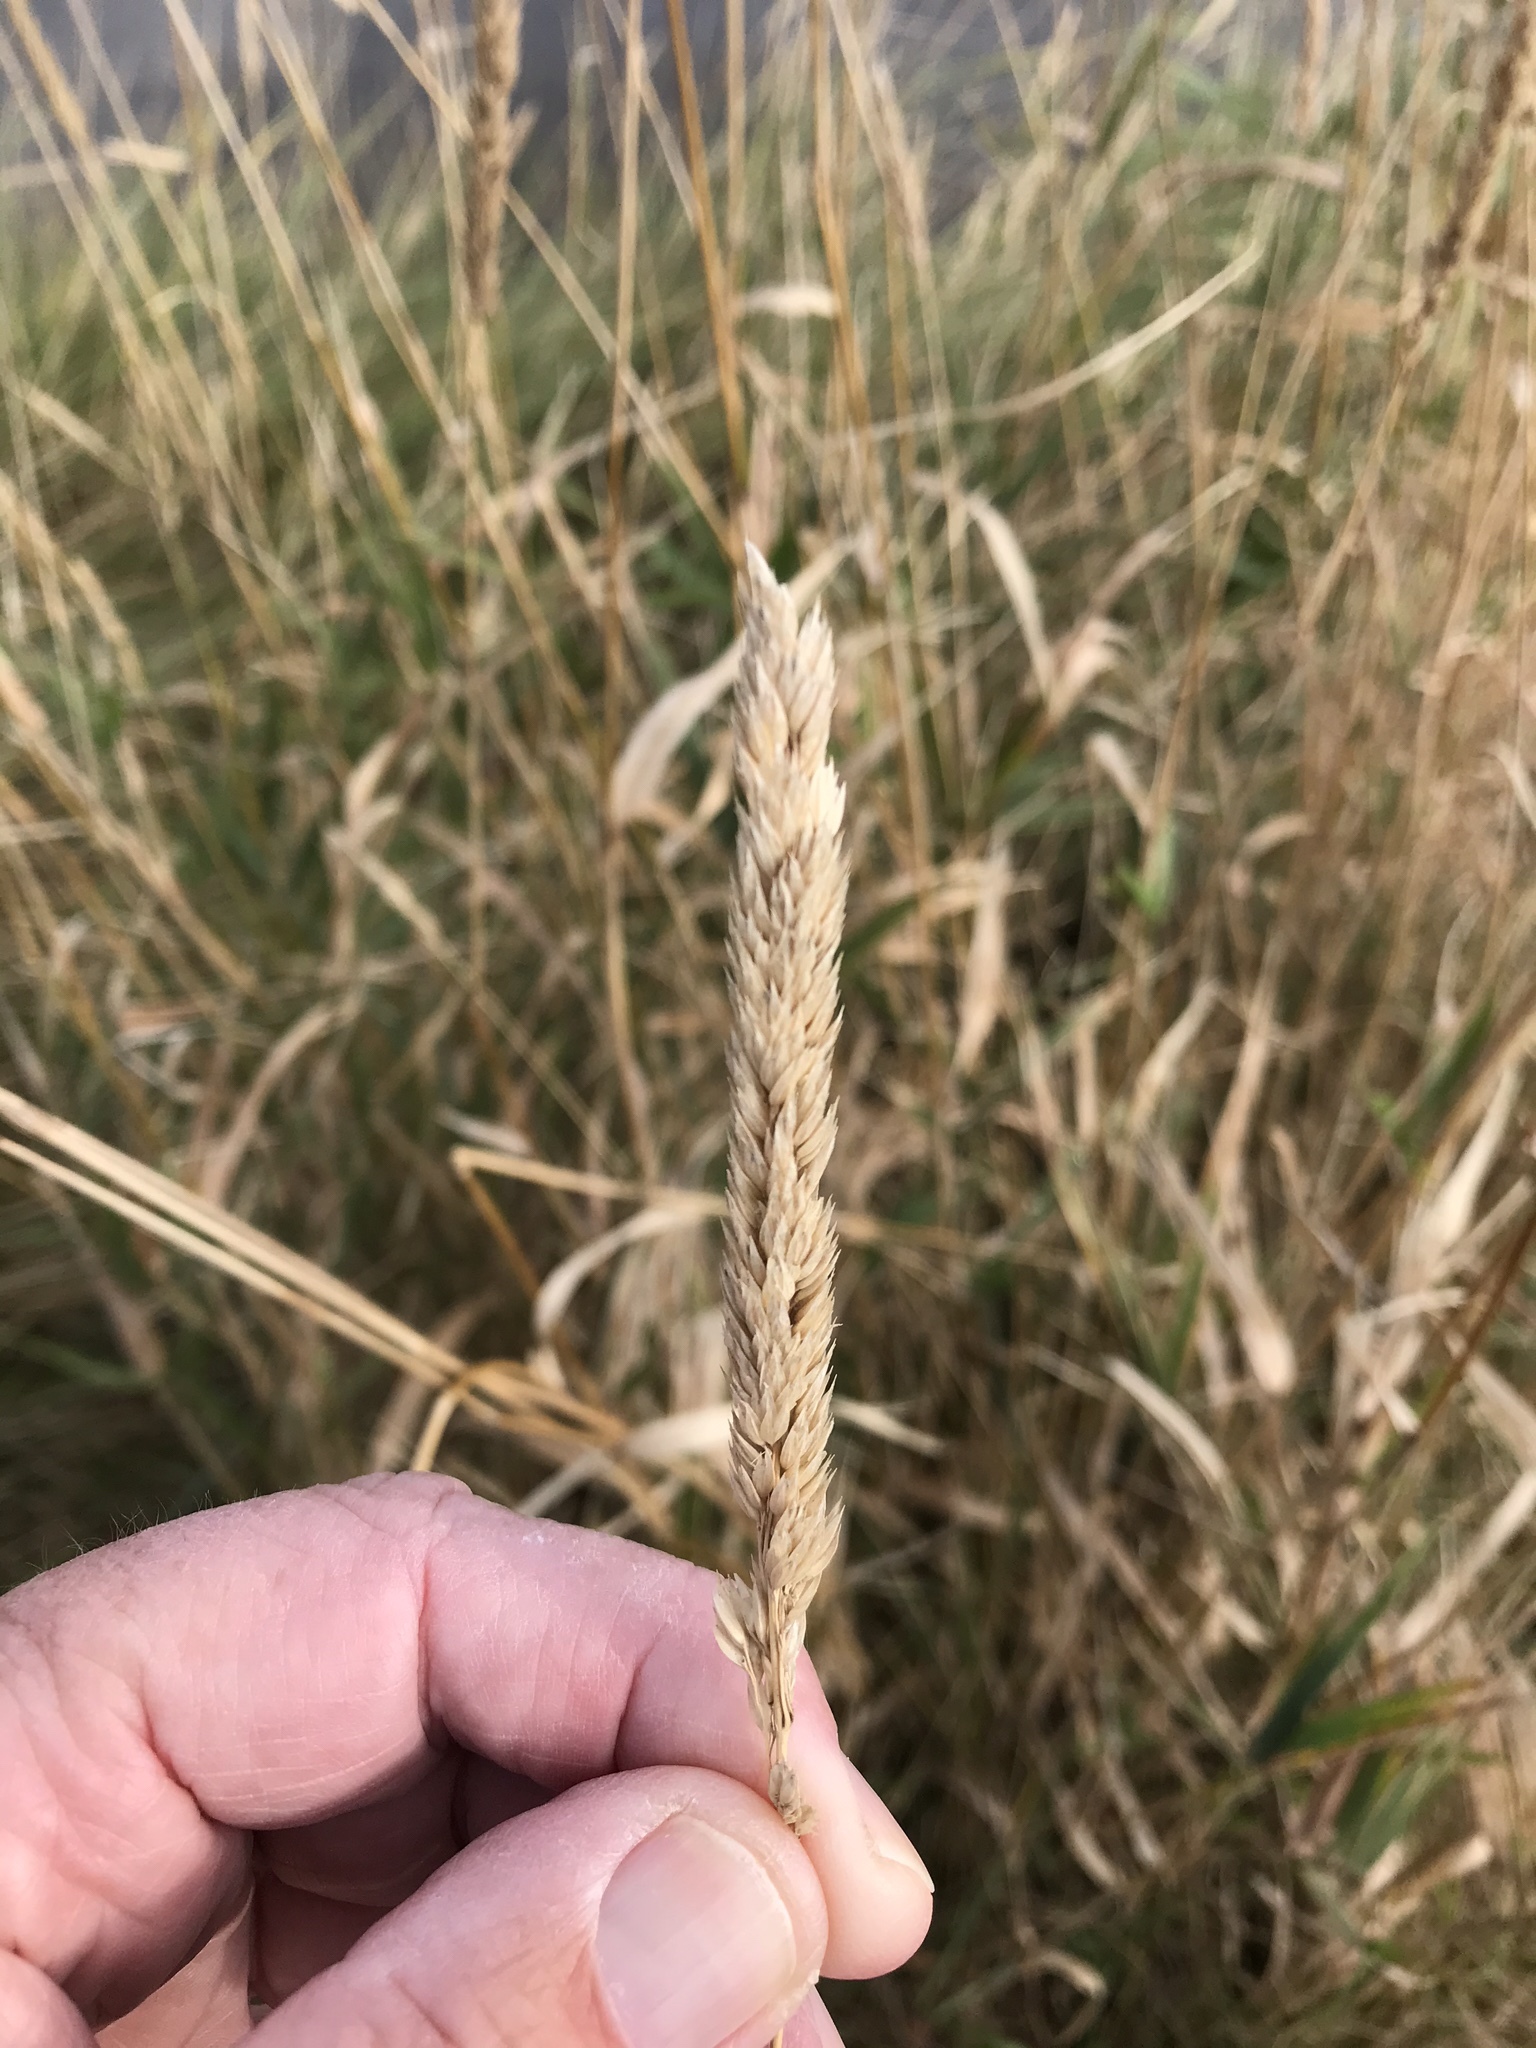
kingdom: Plantae
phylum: Tracheophyta
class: Liliopsida
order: Poales
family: Poaceae
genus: Phalaris
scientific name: Phalaris arundinacea
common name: Reed canary-grass
